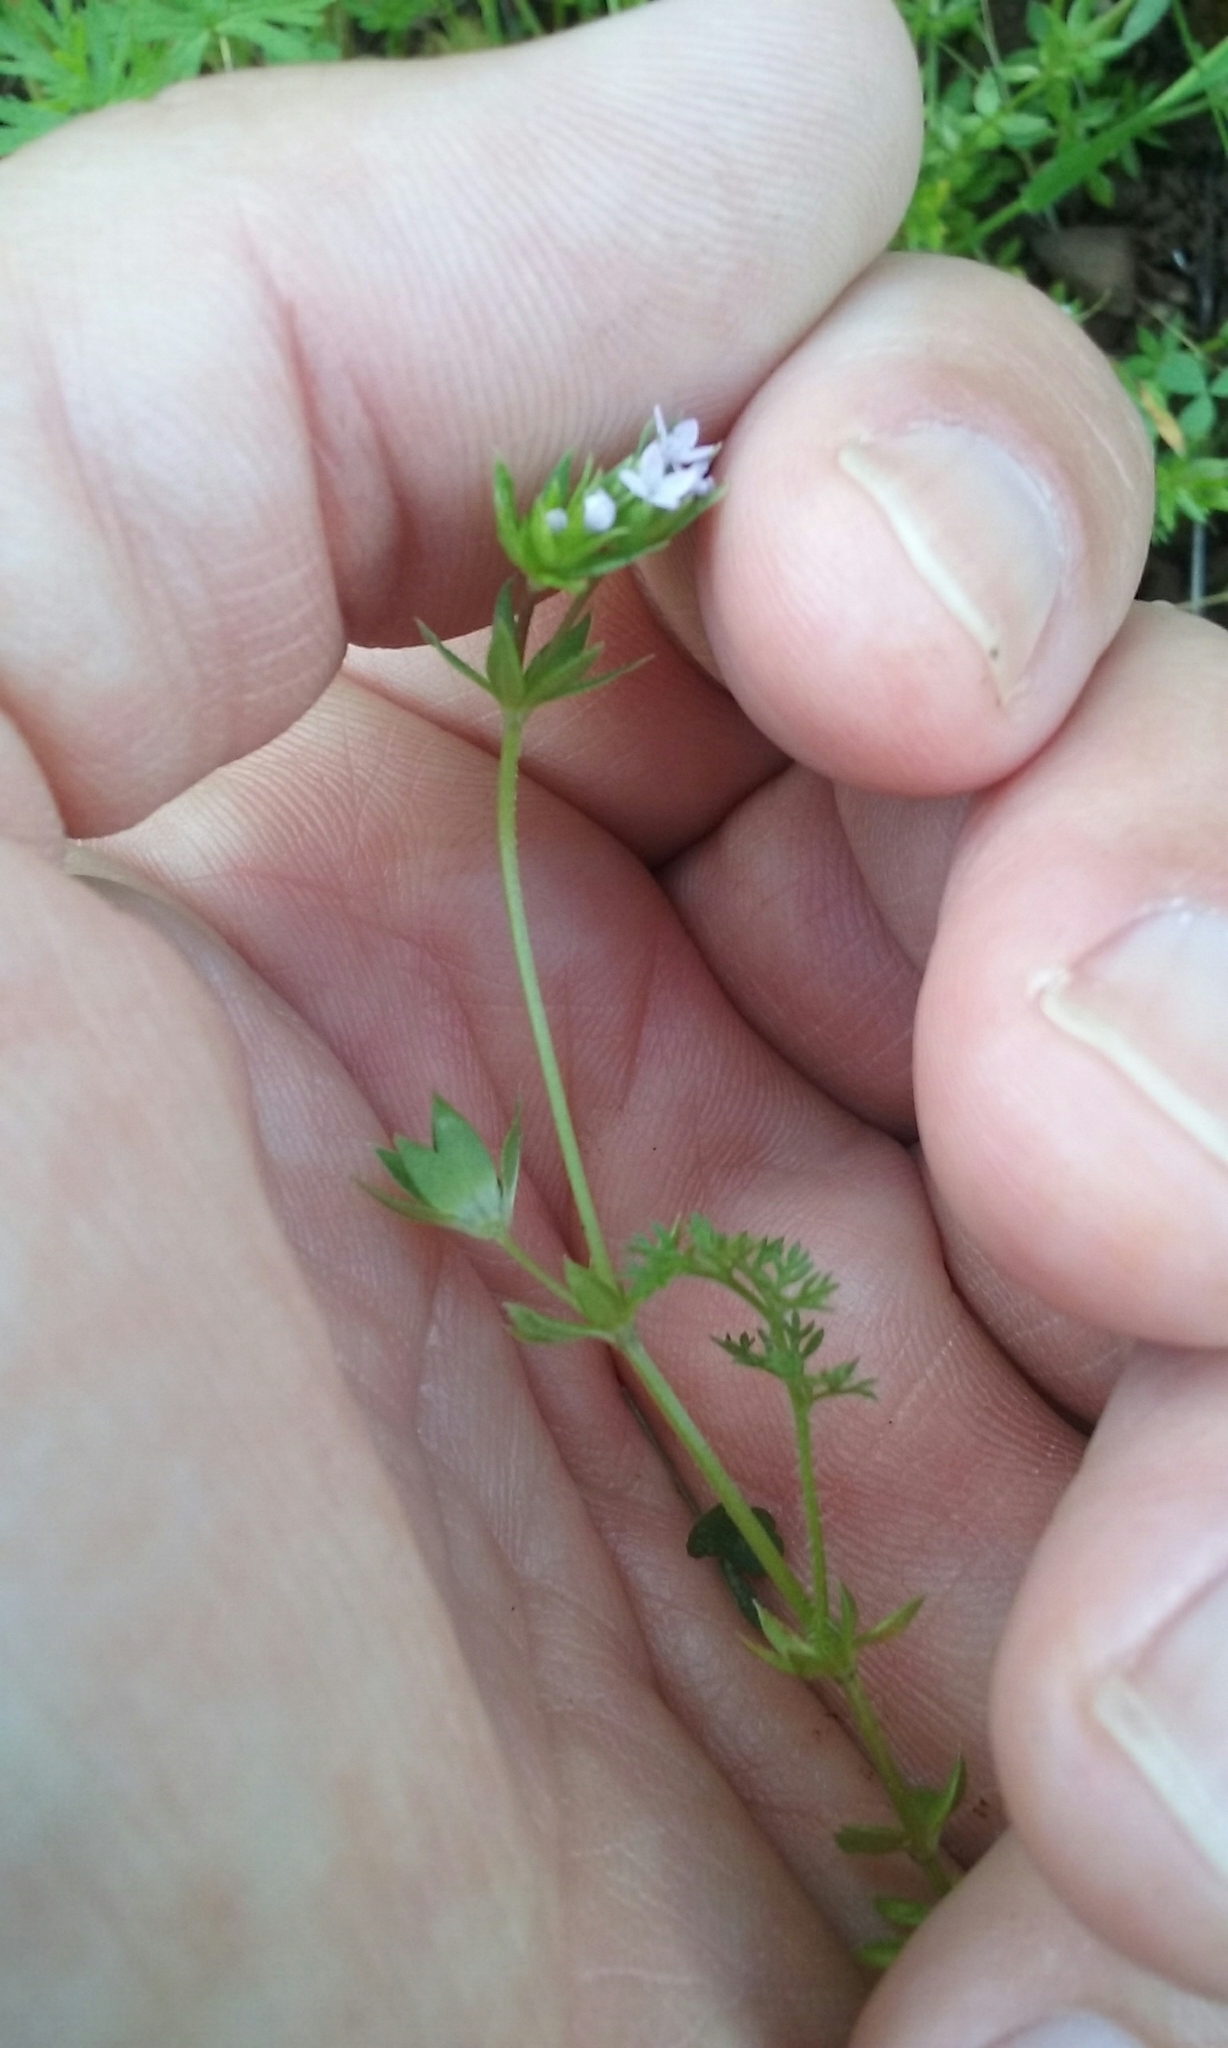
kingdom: Plantae
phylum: Tracheophyta
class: Magnoliopsida
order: Gentianales
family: Rubiaceae
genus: Sherardia
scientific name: Sherardia arvensis
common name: Field madder
